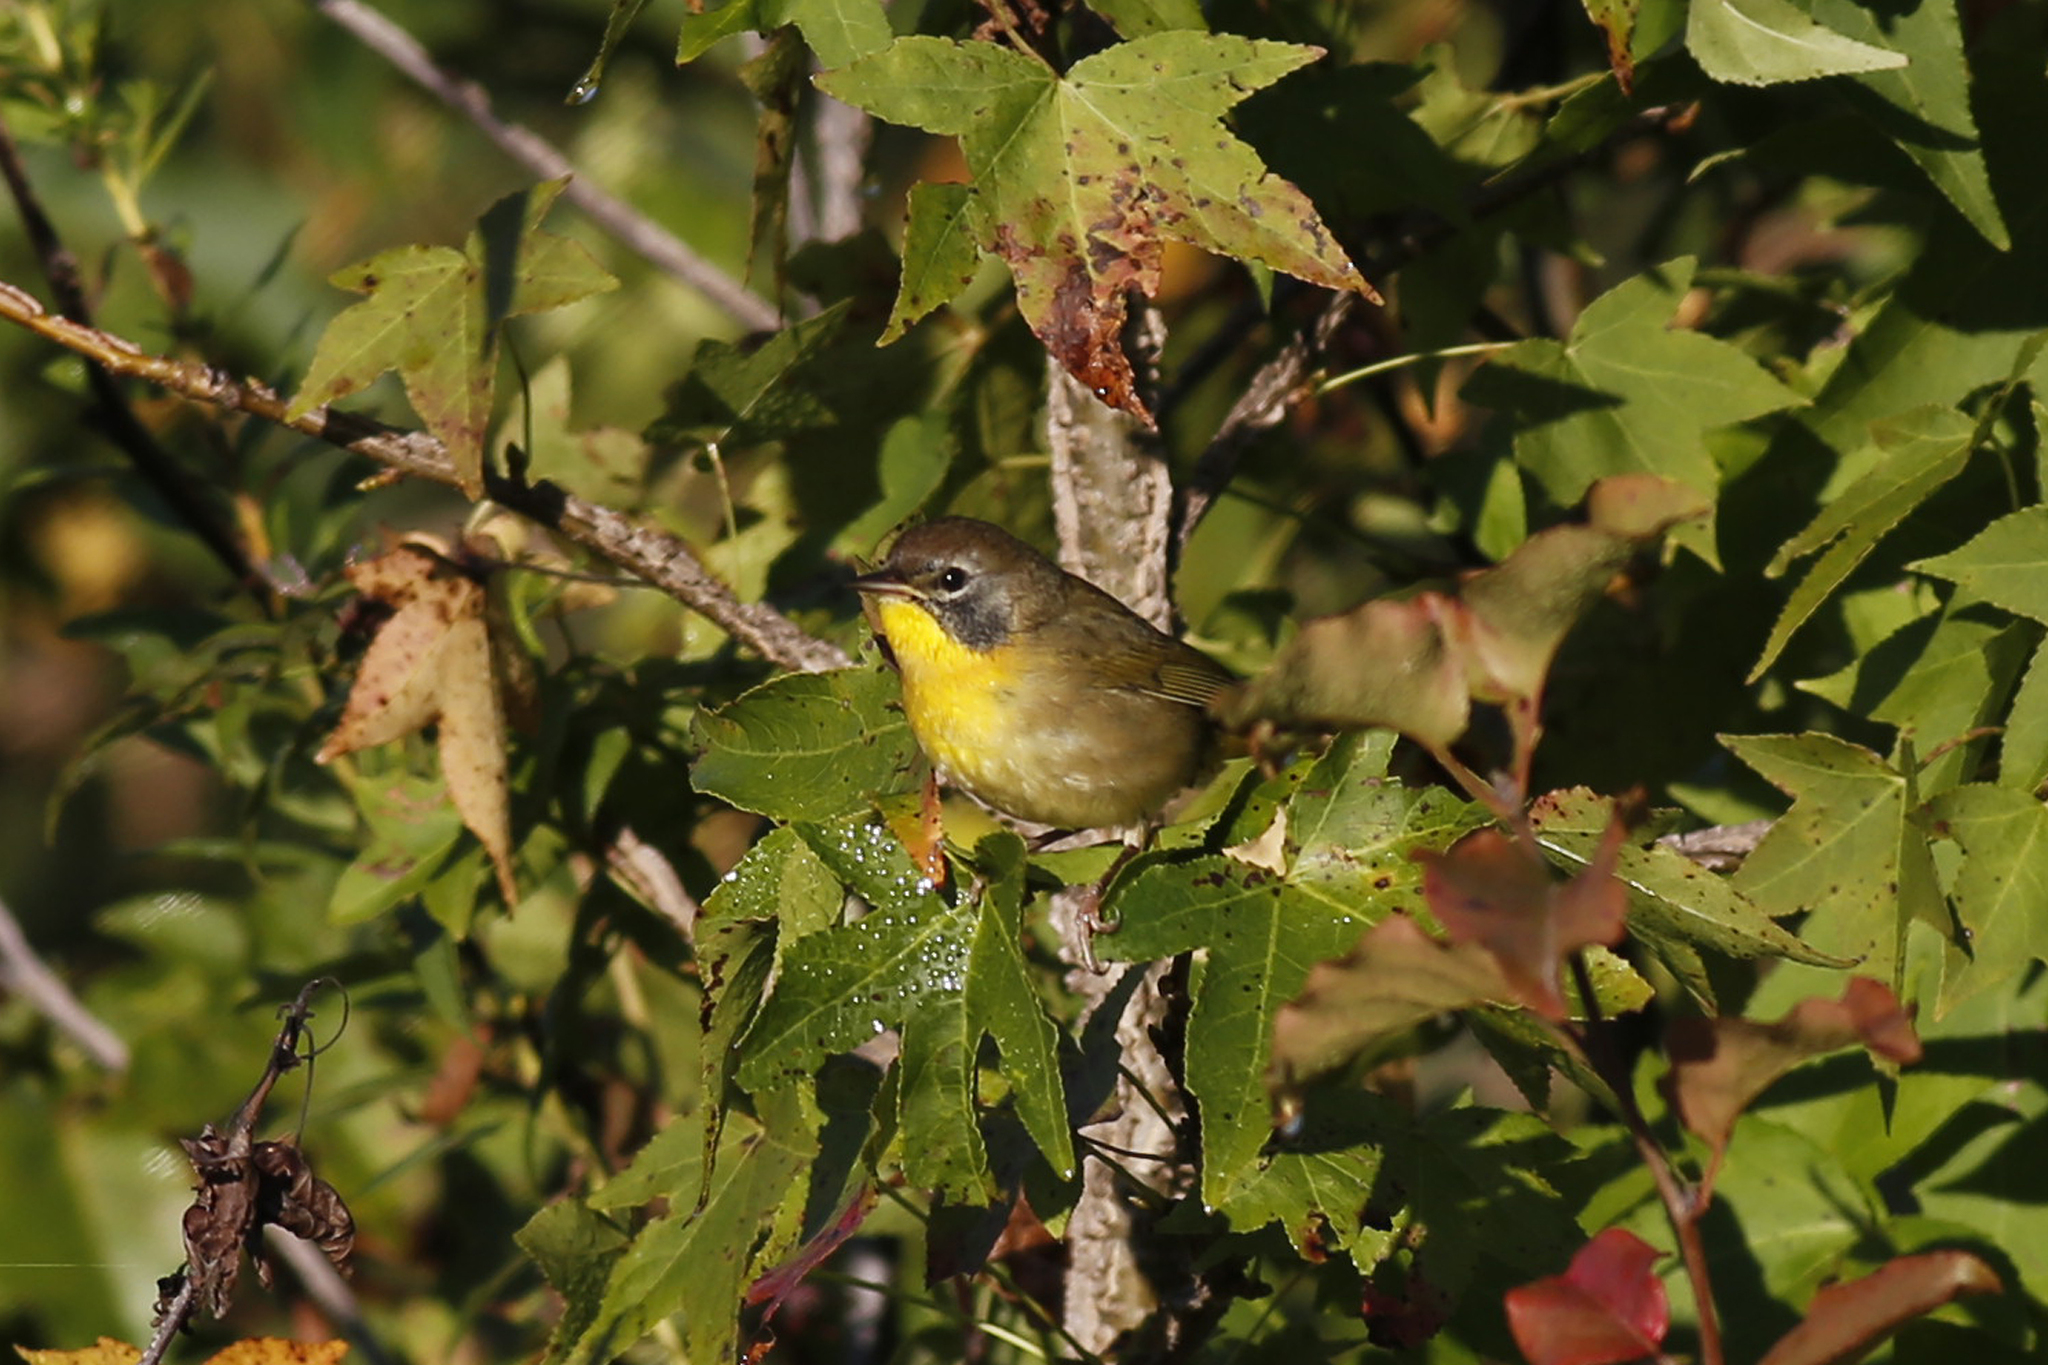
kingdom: Animalia
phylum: Chordata
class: Aves
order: Passeriformes
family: Parulidae
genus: Geothlypis
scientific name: Geothlypis trichas
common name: Common yellowthroat
